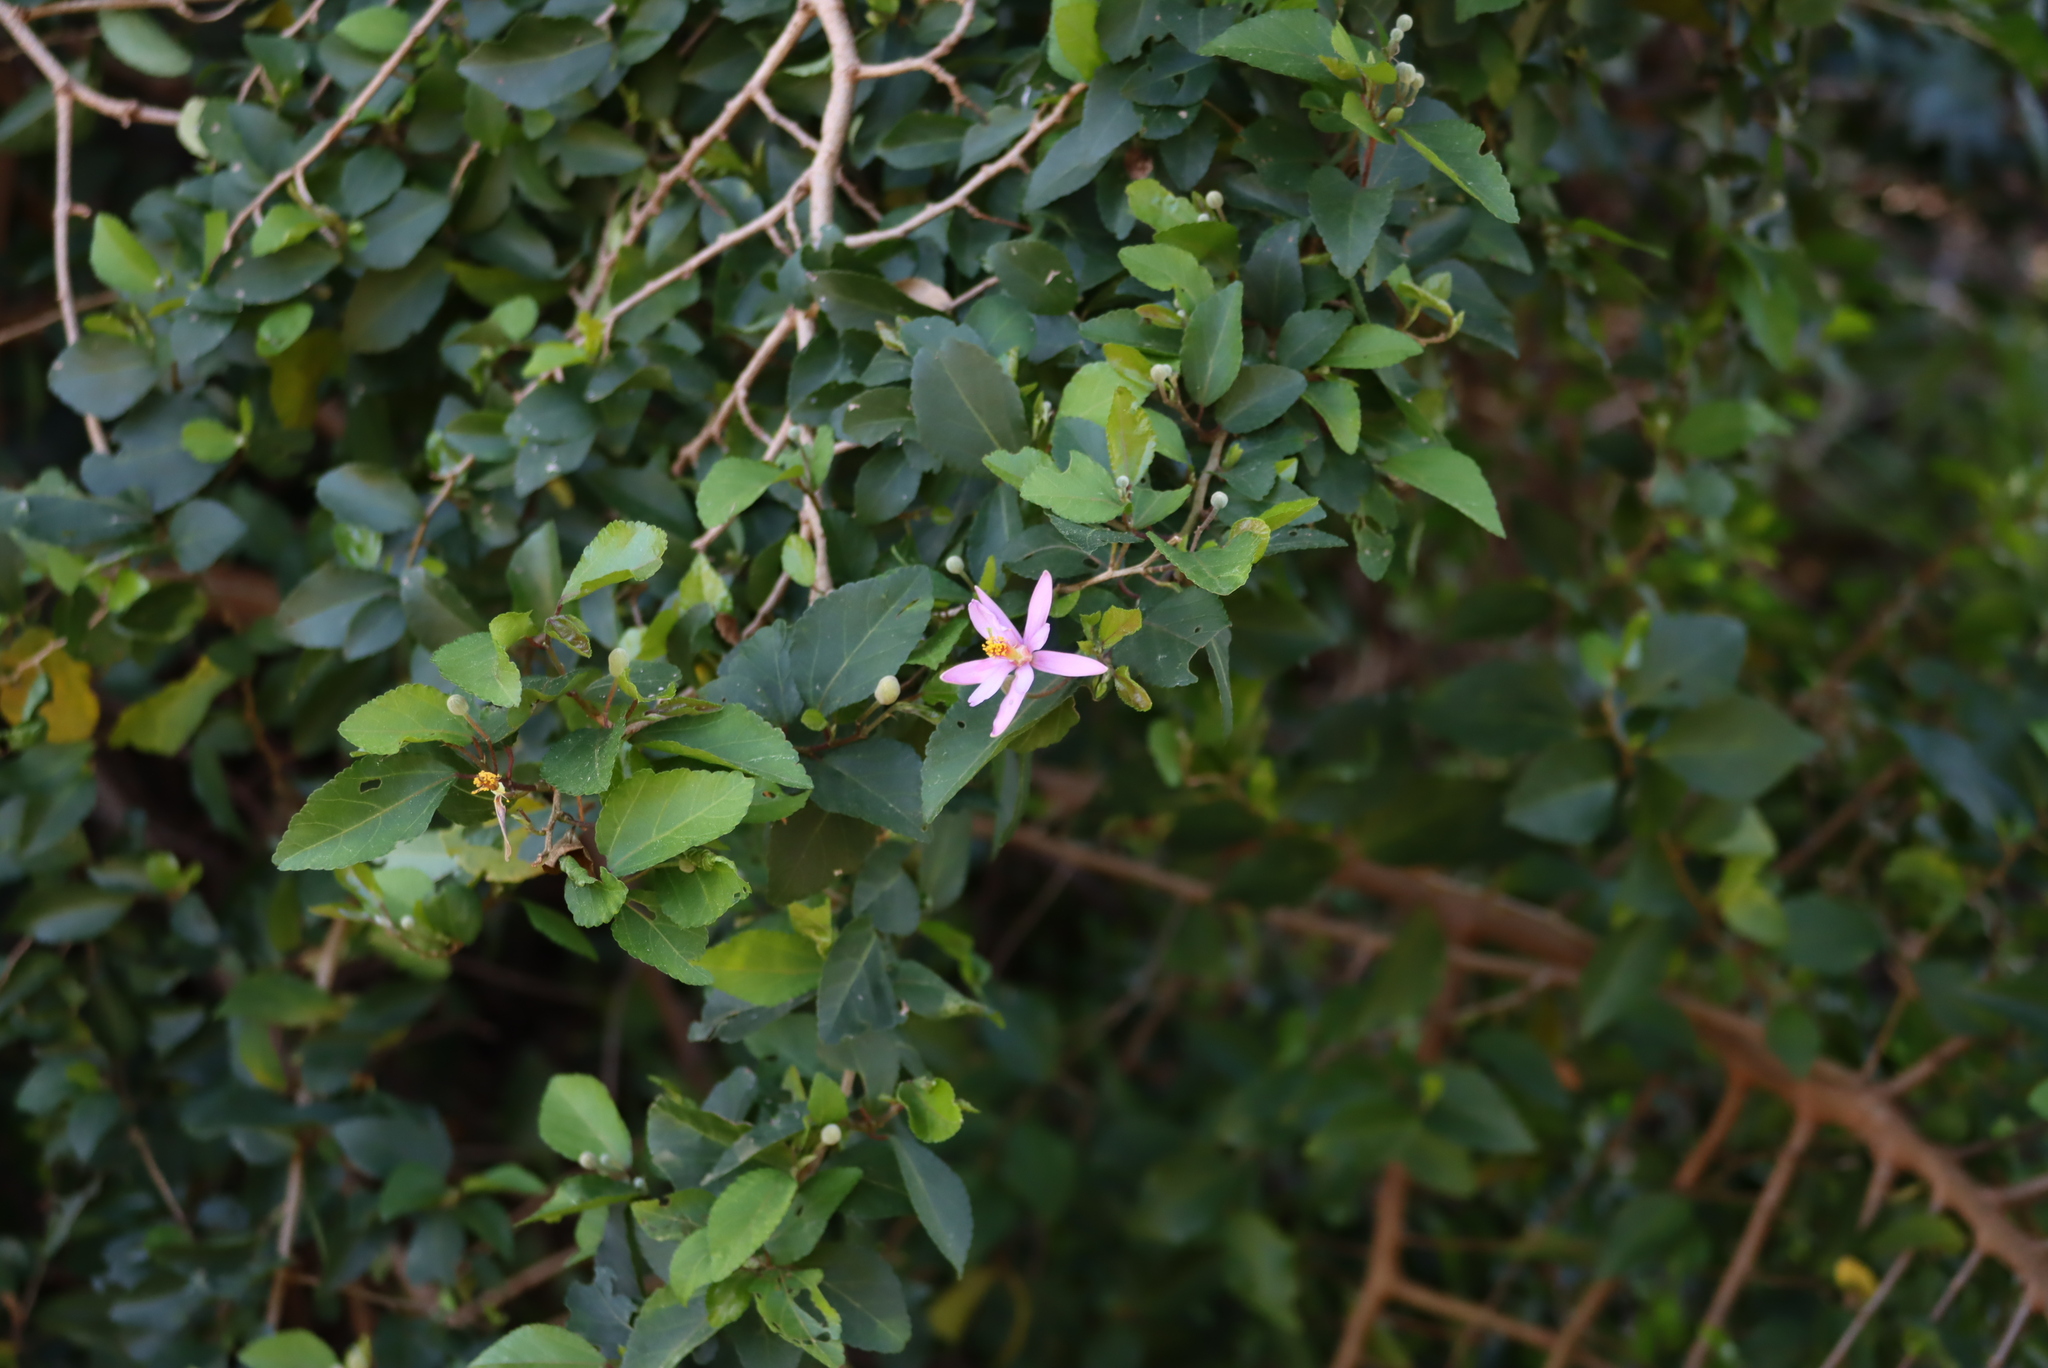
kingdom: Plantae
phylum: Tracheophyta
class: Magnoliopsida
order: Malvales
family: Malvaceae
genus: Grewia
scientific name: Grewia occidentalis
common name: Crossberry
